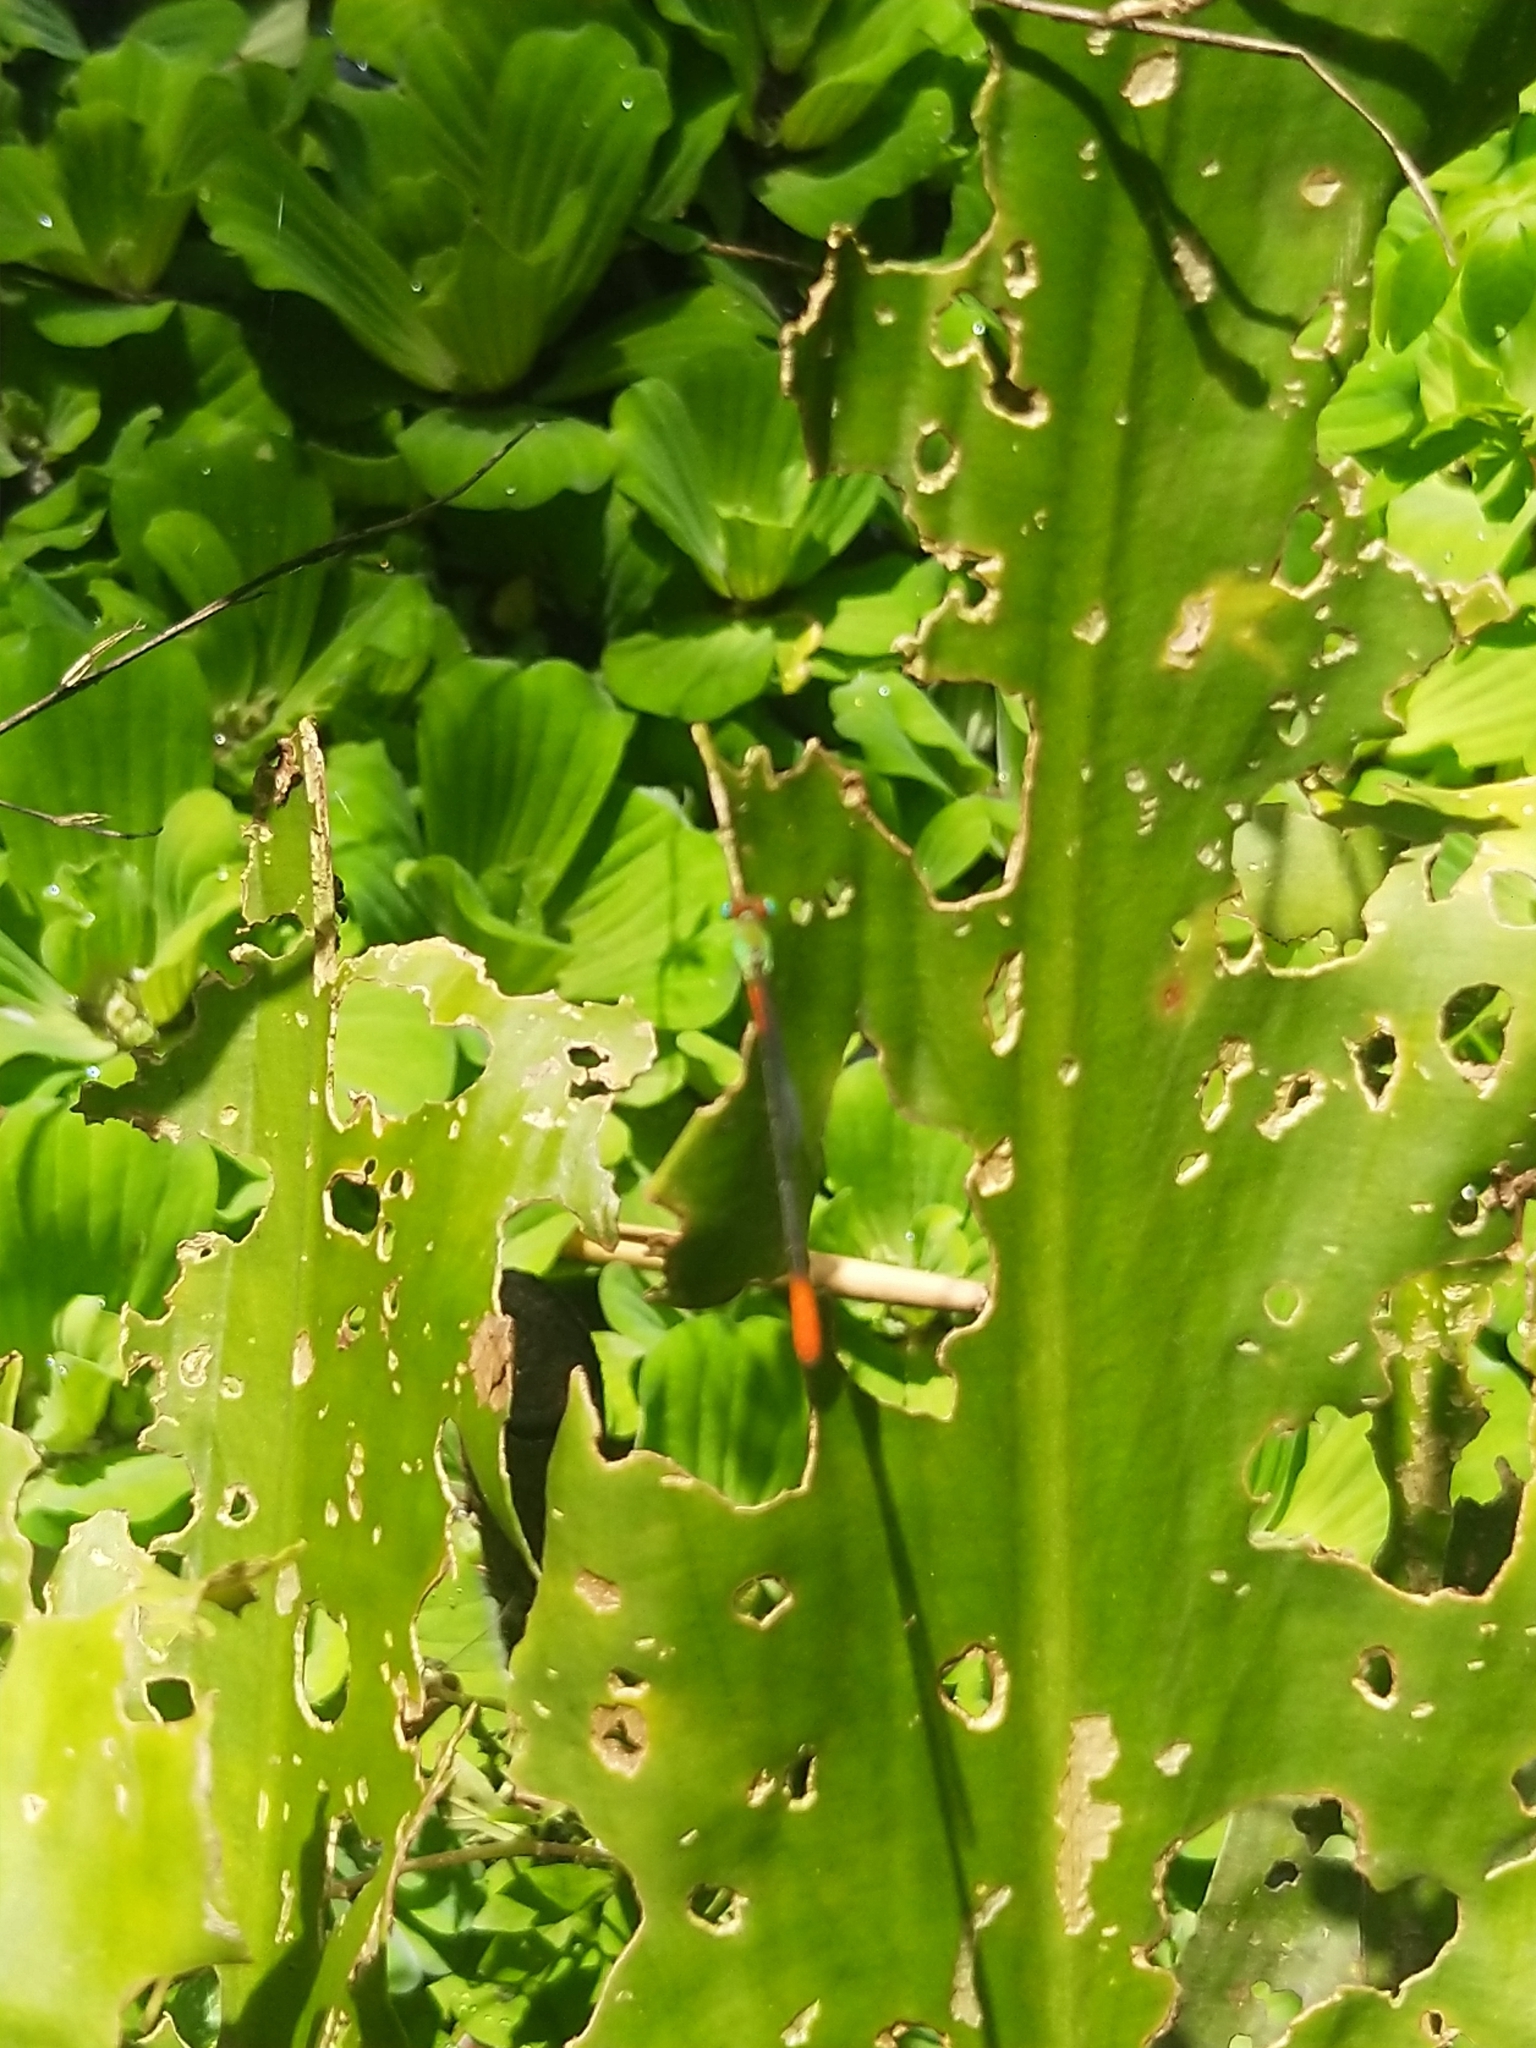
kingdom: Animalia
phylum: Arthropoda
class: Insecta
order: Odonata
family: Coenagrionidae
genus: Ceriagrion
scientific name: Ceriagrion cerinorubellum
